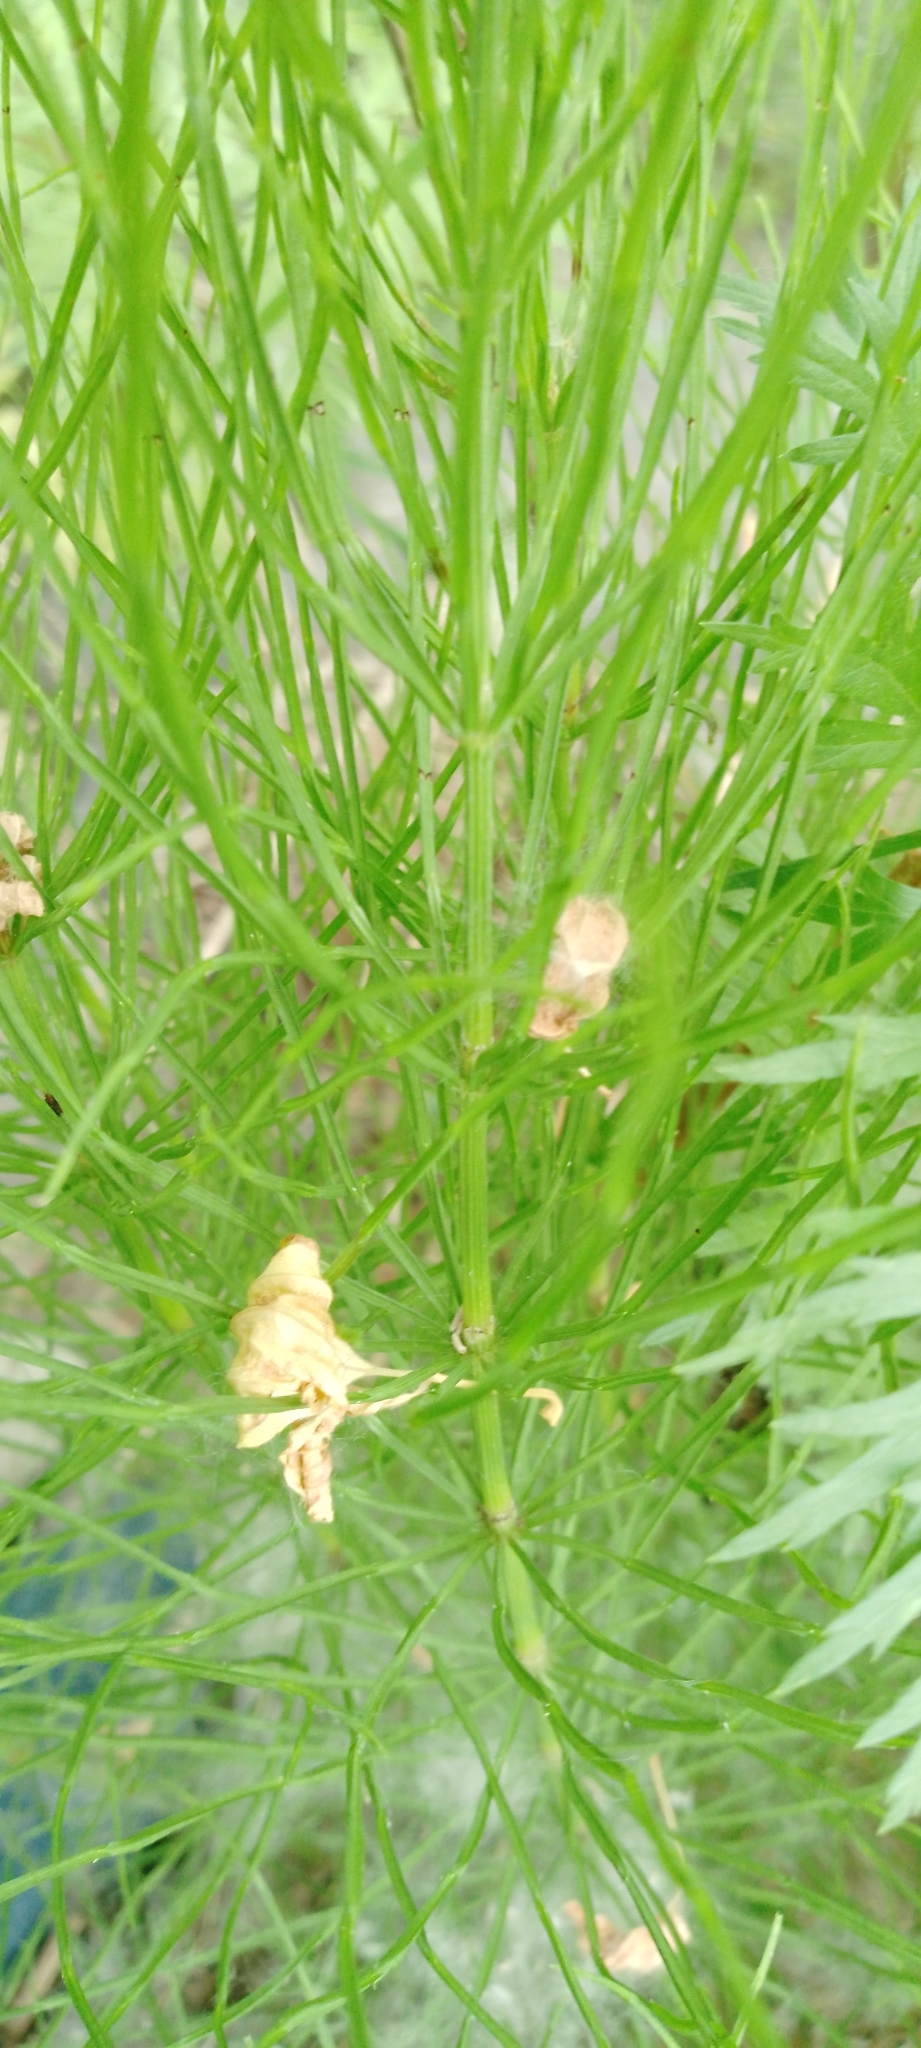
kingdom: Plantae
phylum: Tracheophyta
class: Polypodiopsida
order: Equisetales
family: Equisetaceae
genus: Equisetum
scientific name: Equisetum arvense
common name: Field horsetail
